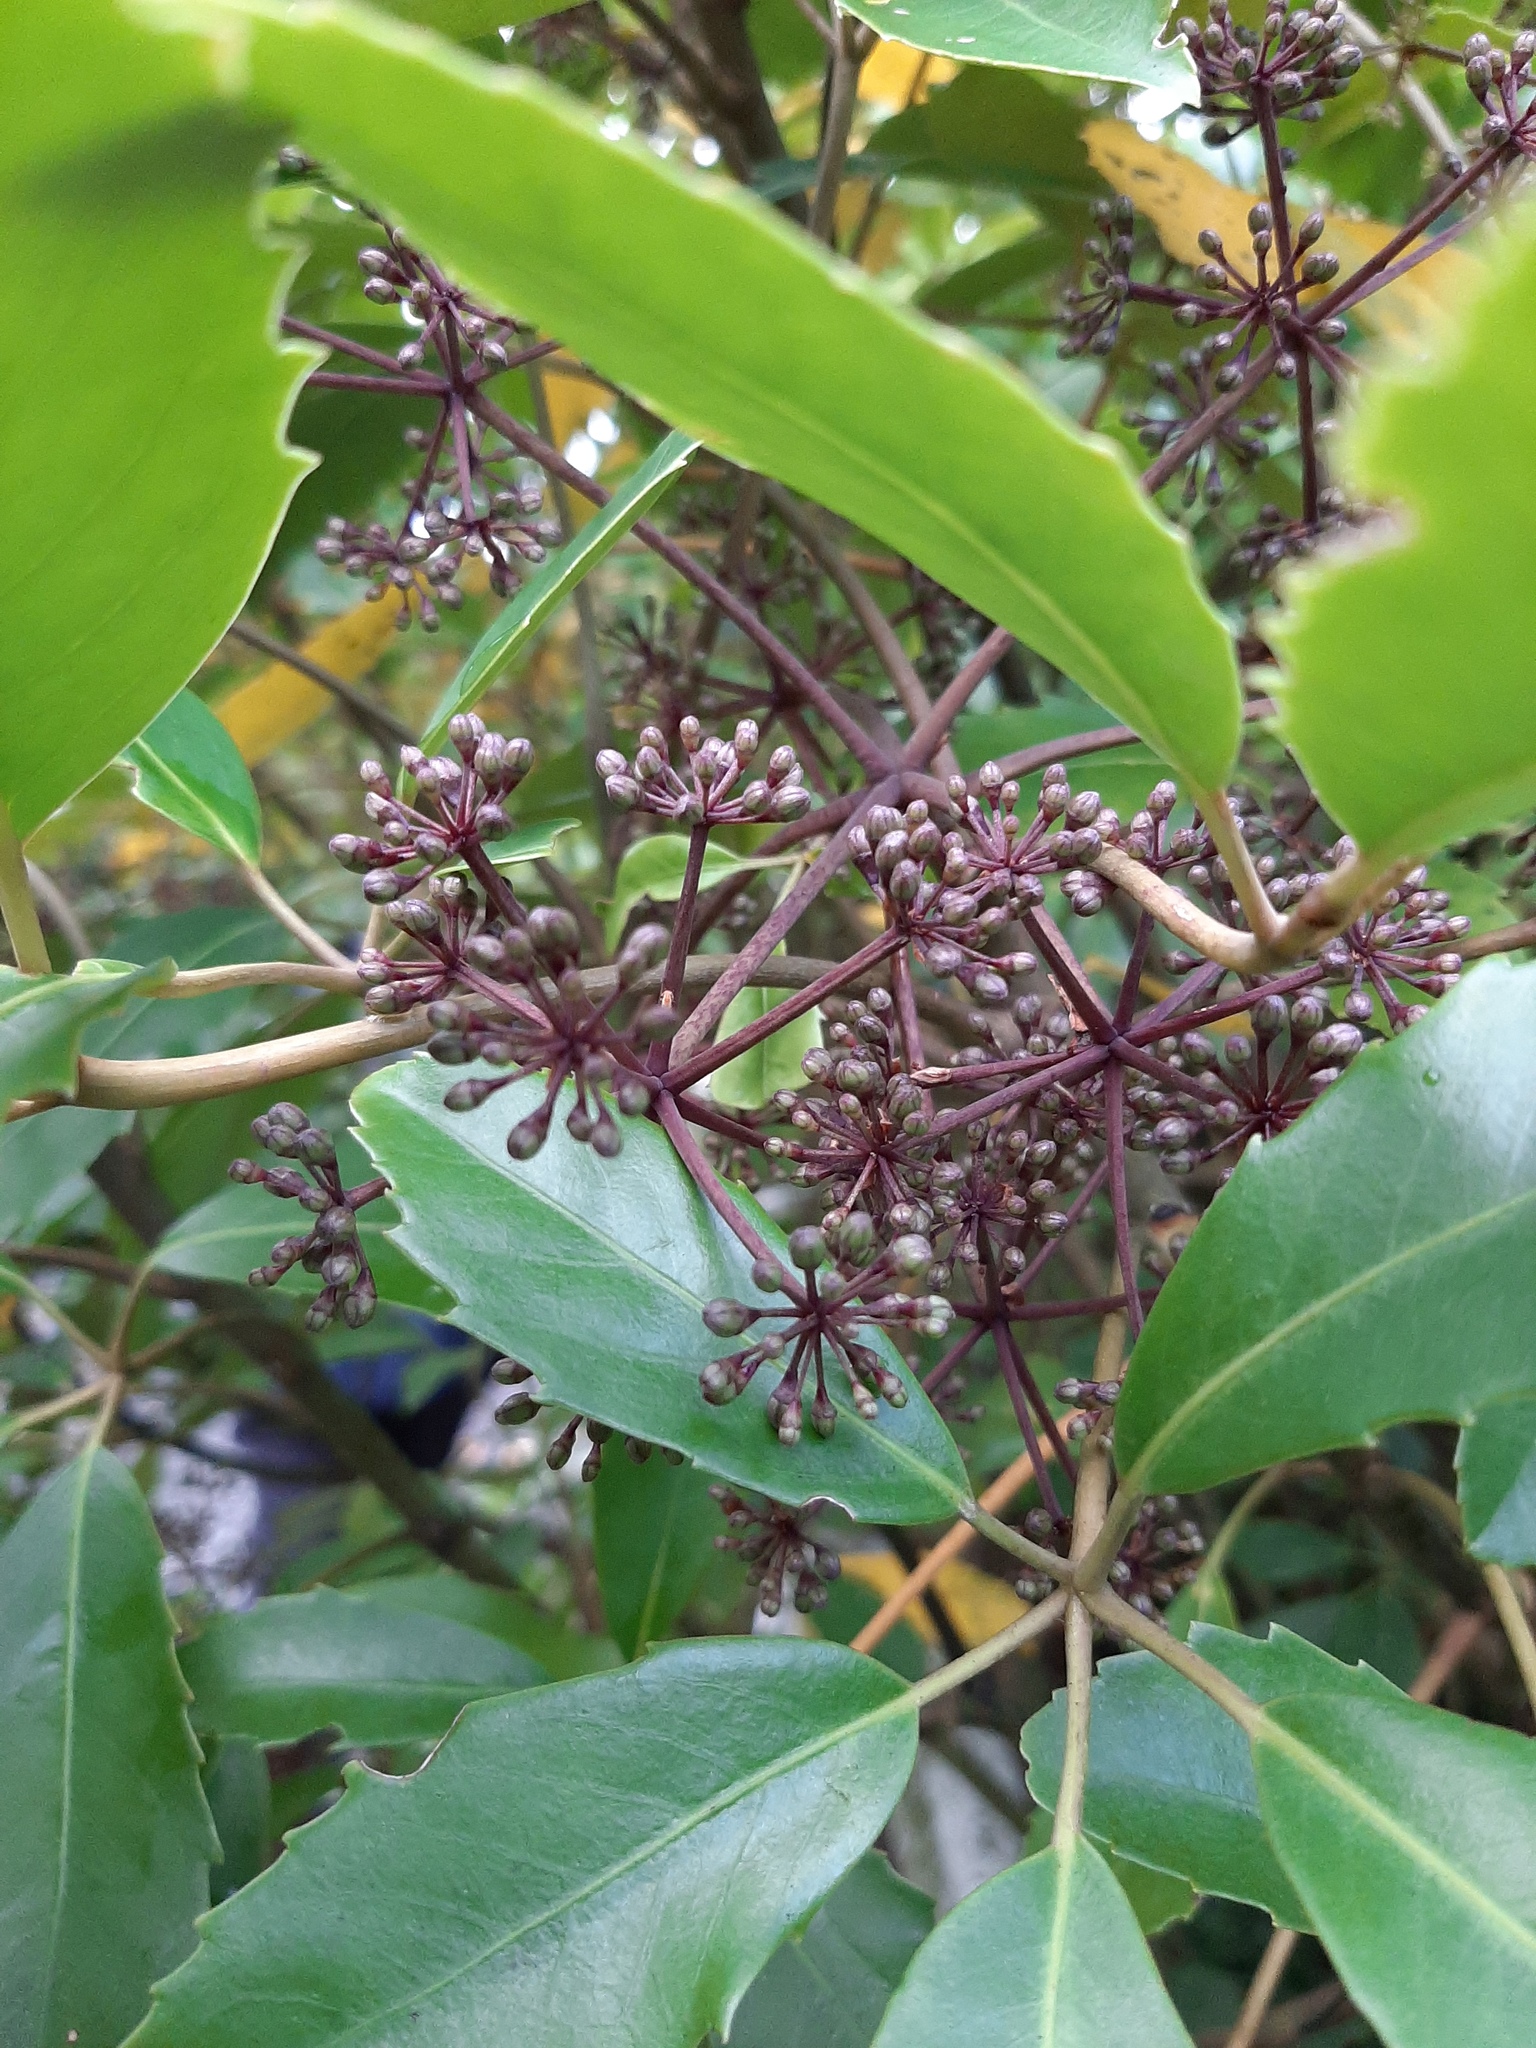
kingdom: Plantae
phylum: Tracheophyta
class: Magnoliopsida
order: Apiales
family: Araliaceae
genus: Neopanax
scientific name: Neopanax arboreus
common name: Five-fingers
